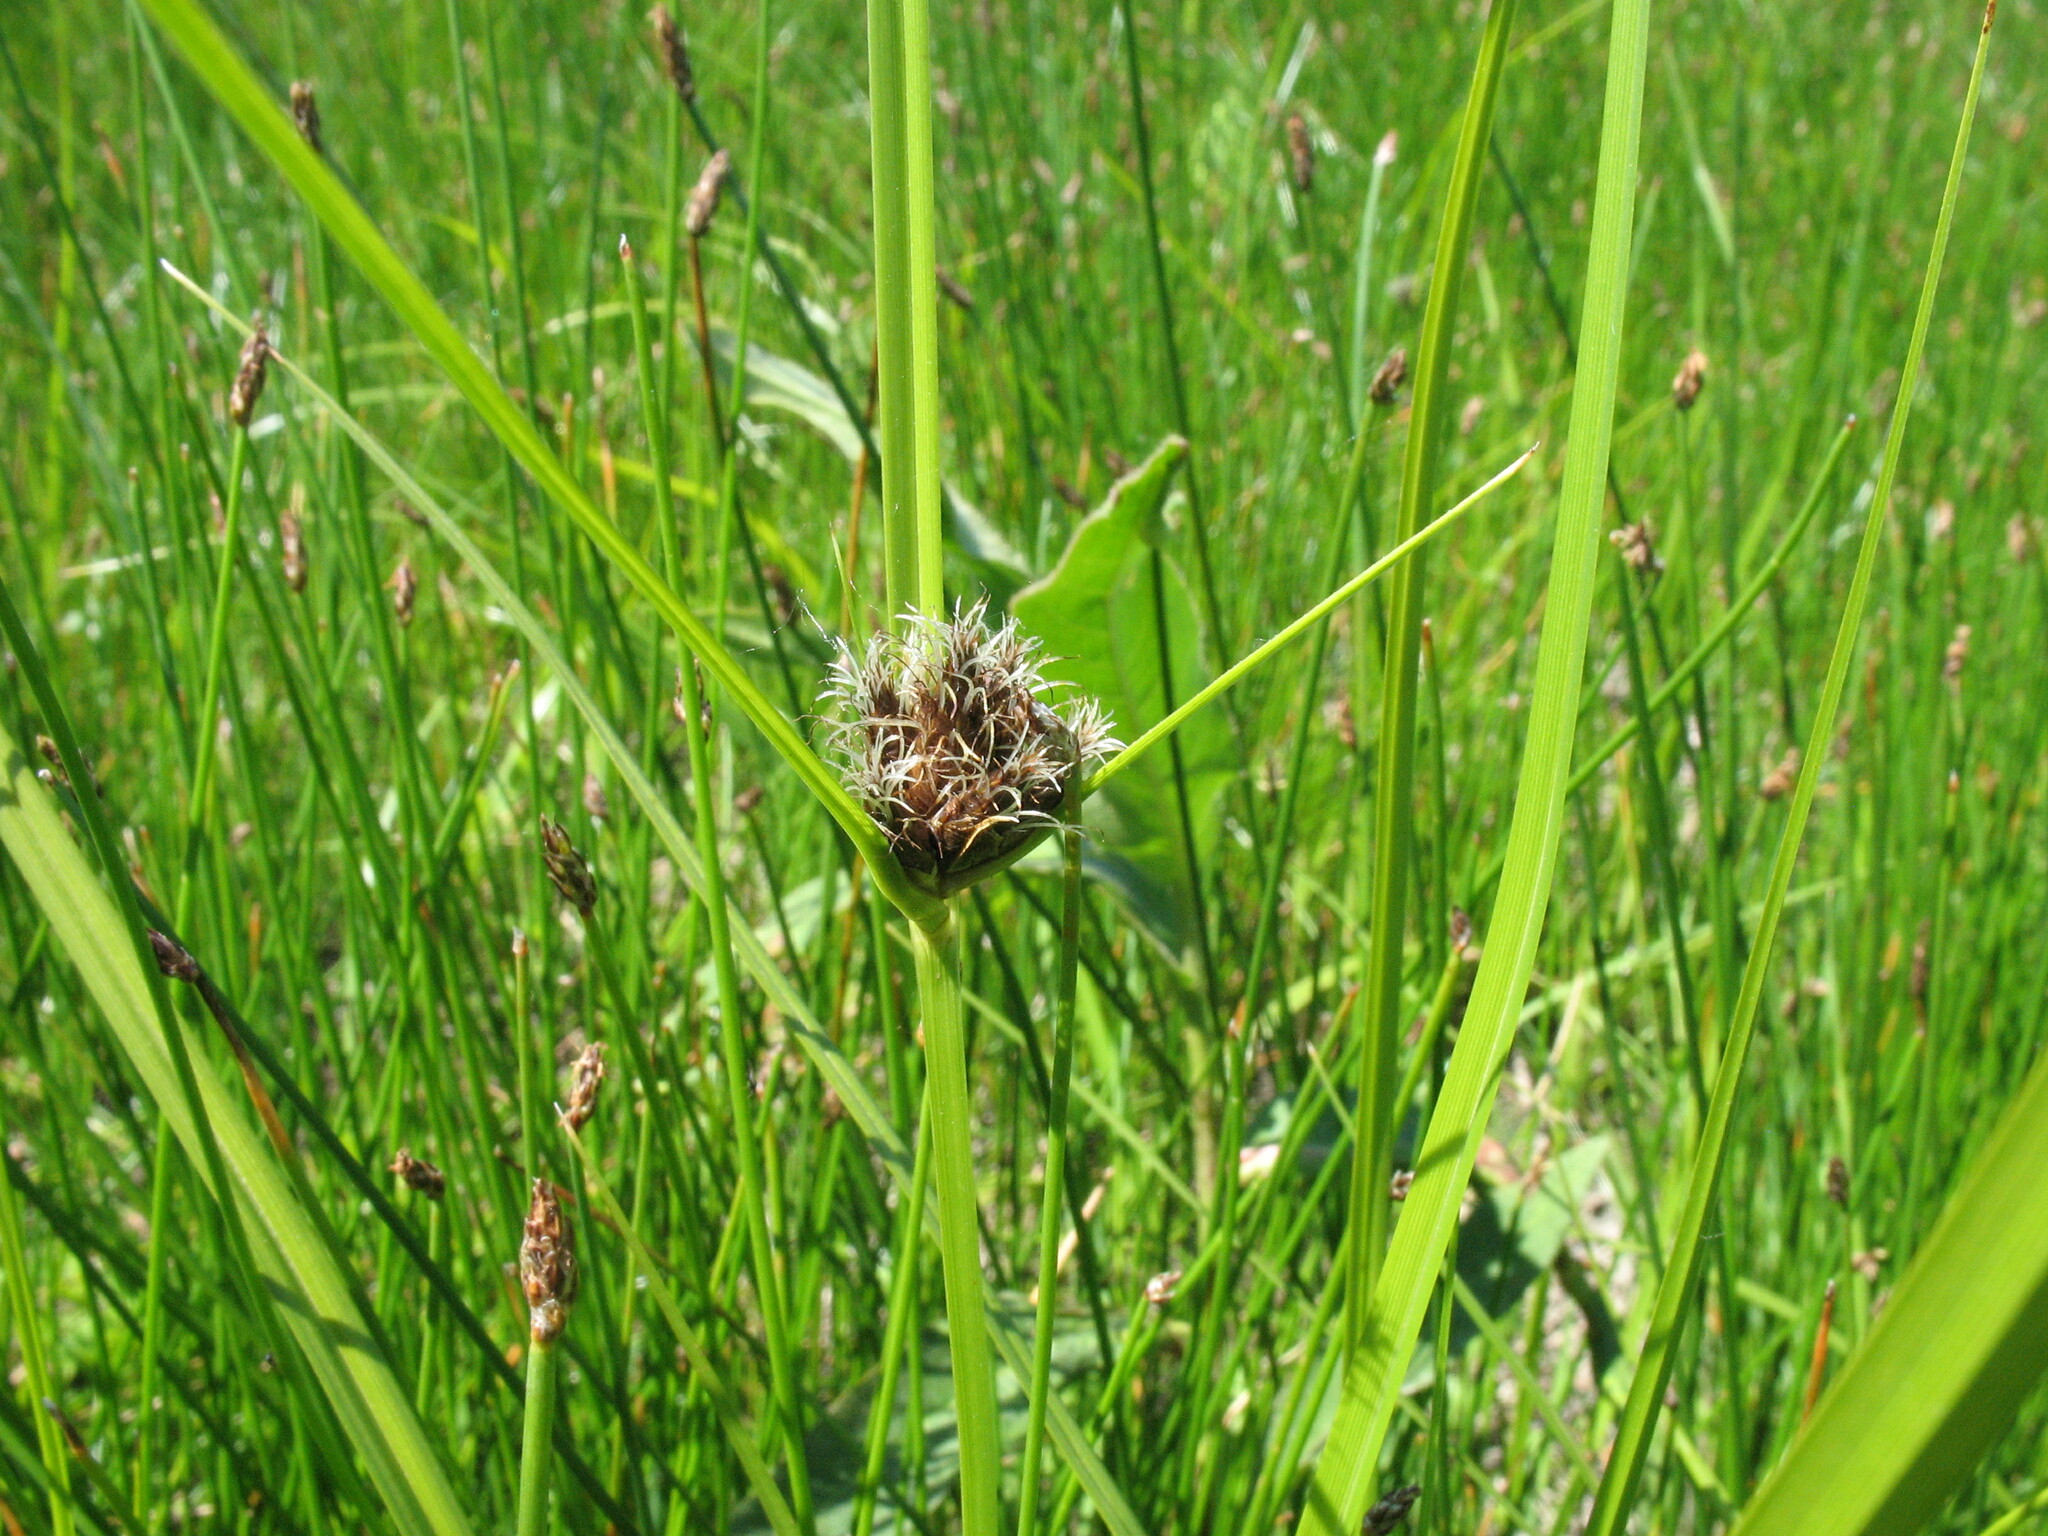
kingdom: Plantae
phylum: Tracheophyta
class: Liliopsida
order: Poales
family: Cyperaceae
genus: Bolboschoenus
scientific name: Bolboschoenus maritimus
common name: Sea club-rush
